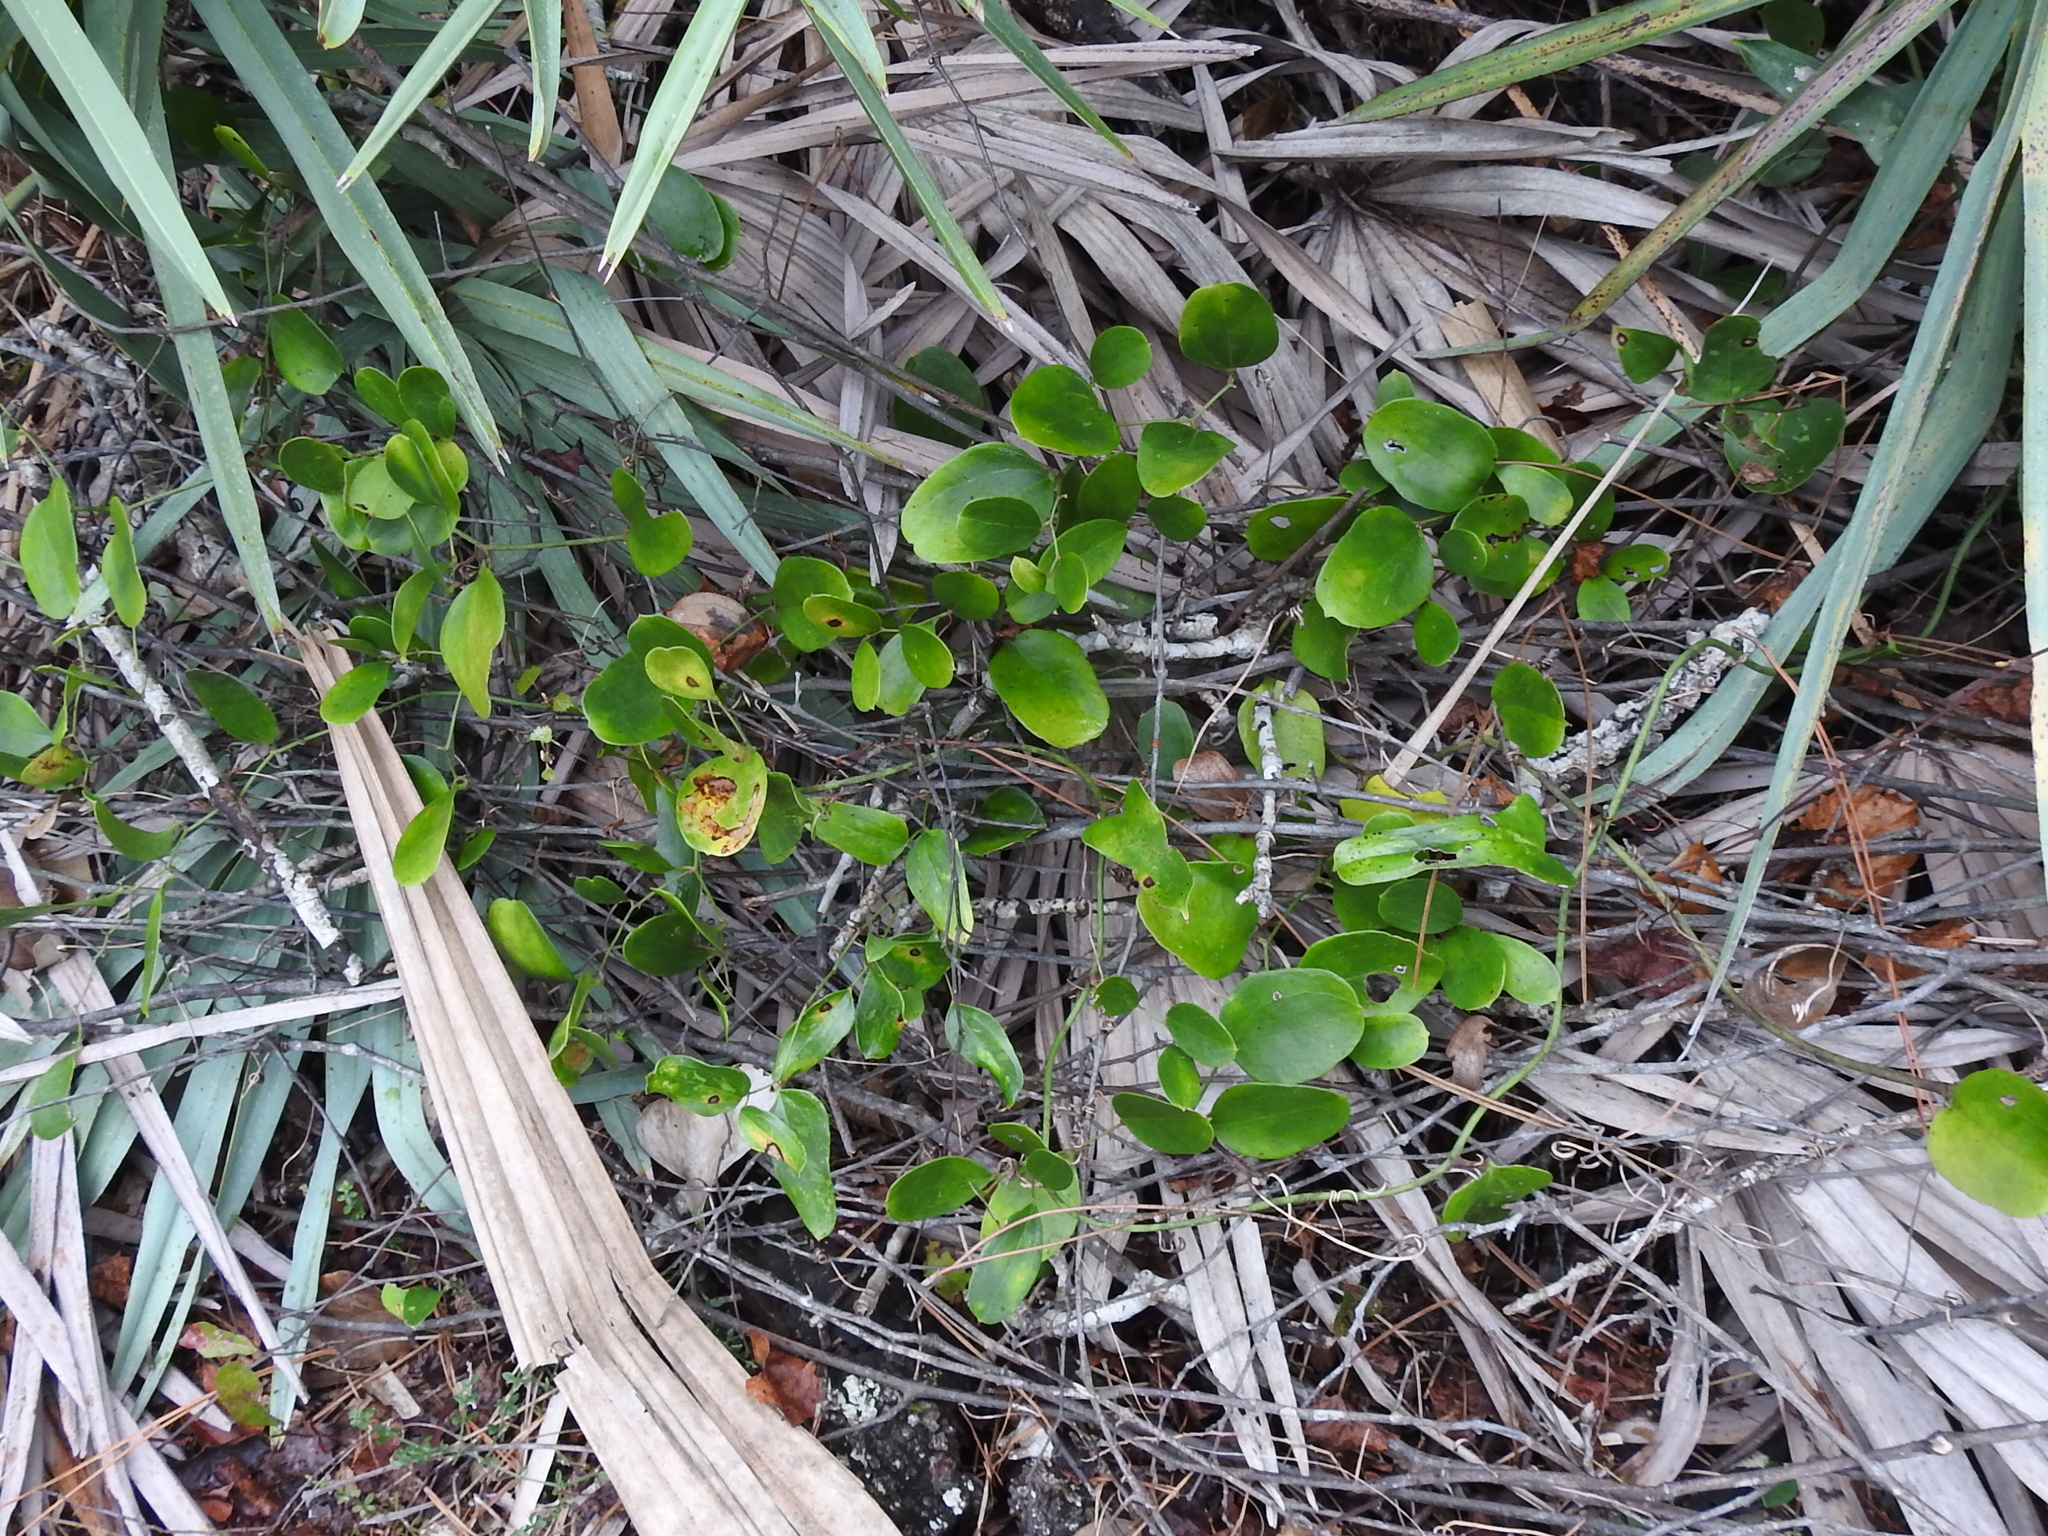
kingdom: Plantae
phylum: Tracheophyta
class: Liliopsida
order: Liliales
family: Smilacaceae
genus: Smilax
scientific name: Smilax auriculata
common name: Wild bamboo
